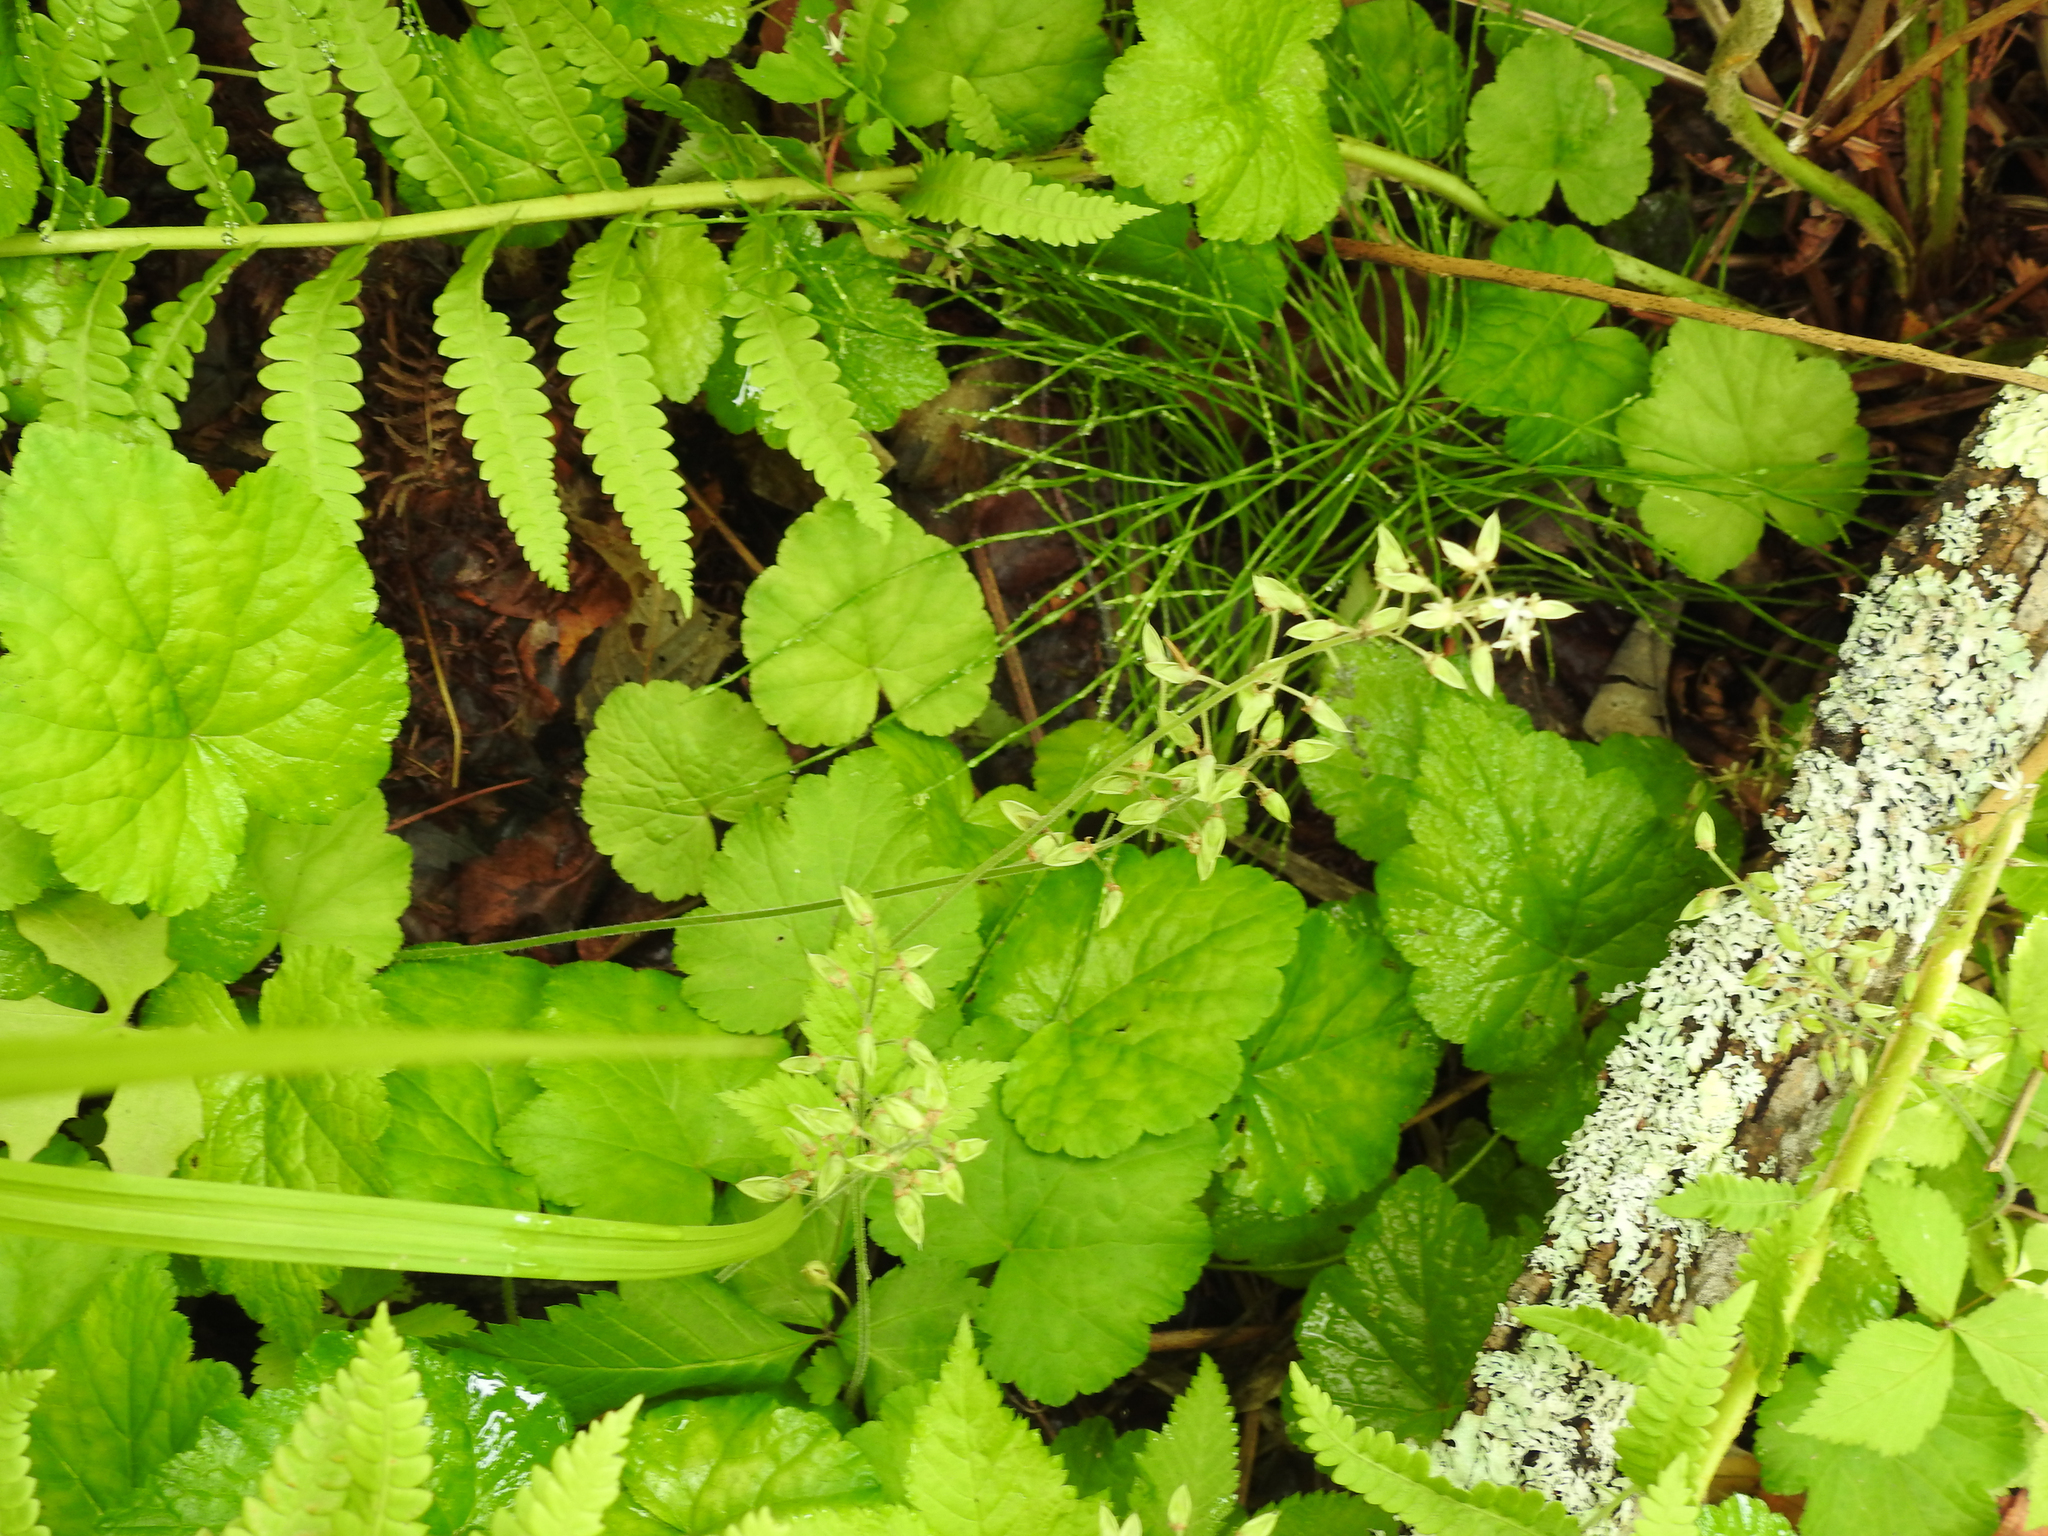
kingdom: Plantae
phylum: Tracheophyta
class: Magnoliopsida
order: Saxifragales
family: Saxifragaceae
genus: Tiarella
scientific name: Tiarella stolonifera
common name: Stoloniferous foamflower
